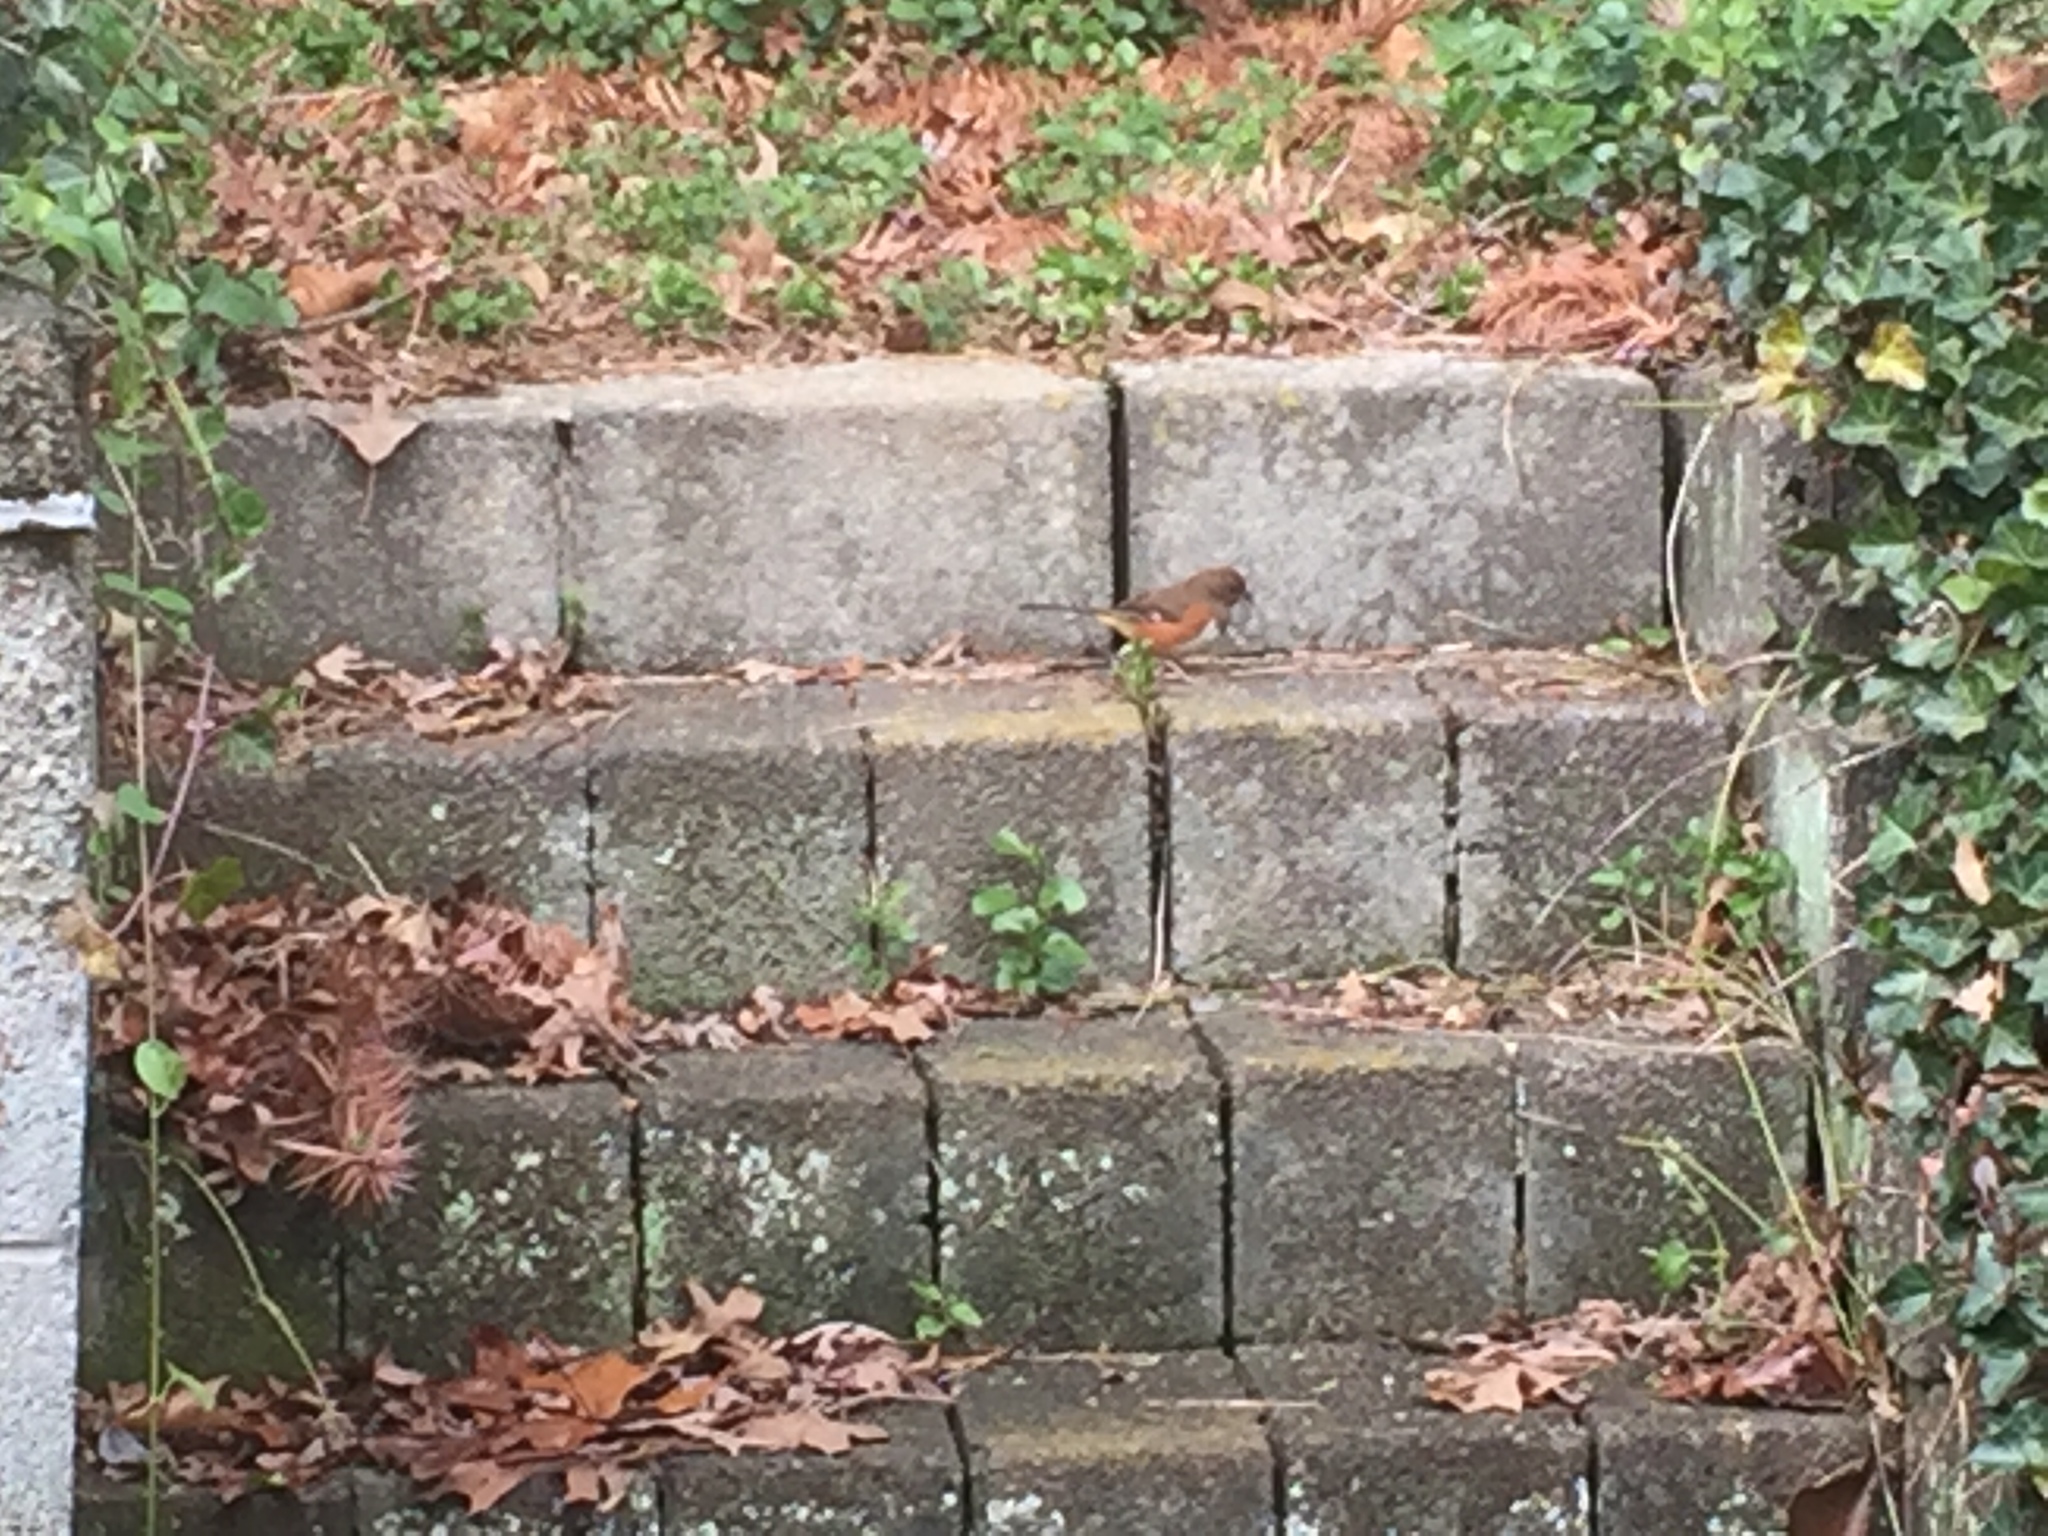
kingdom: Animalia
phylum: Chordata
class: Aves
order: Passeriformes
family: Passerellidae
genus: Pipilo
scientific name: Pipilo erythrophthalmus
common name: Eastern towhee
